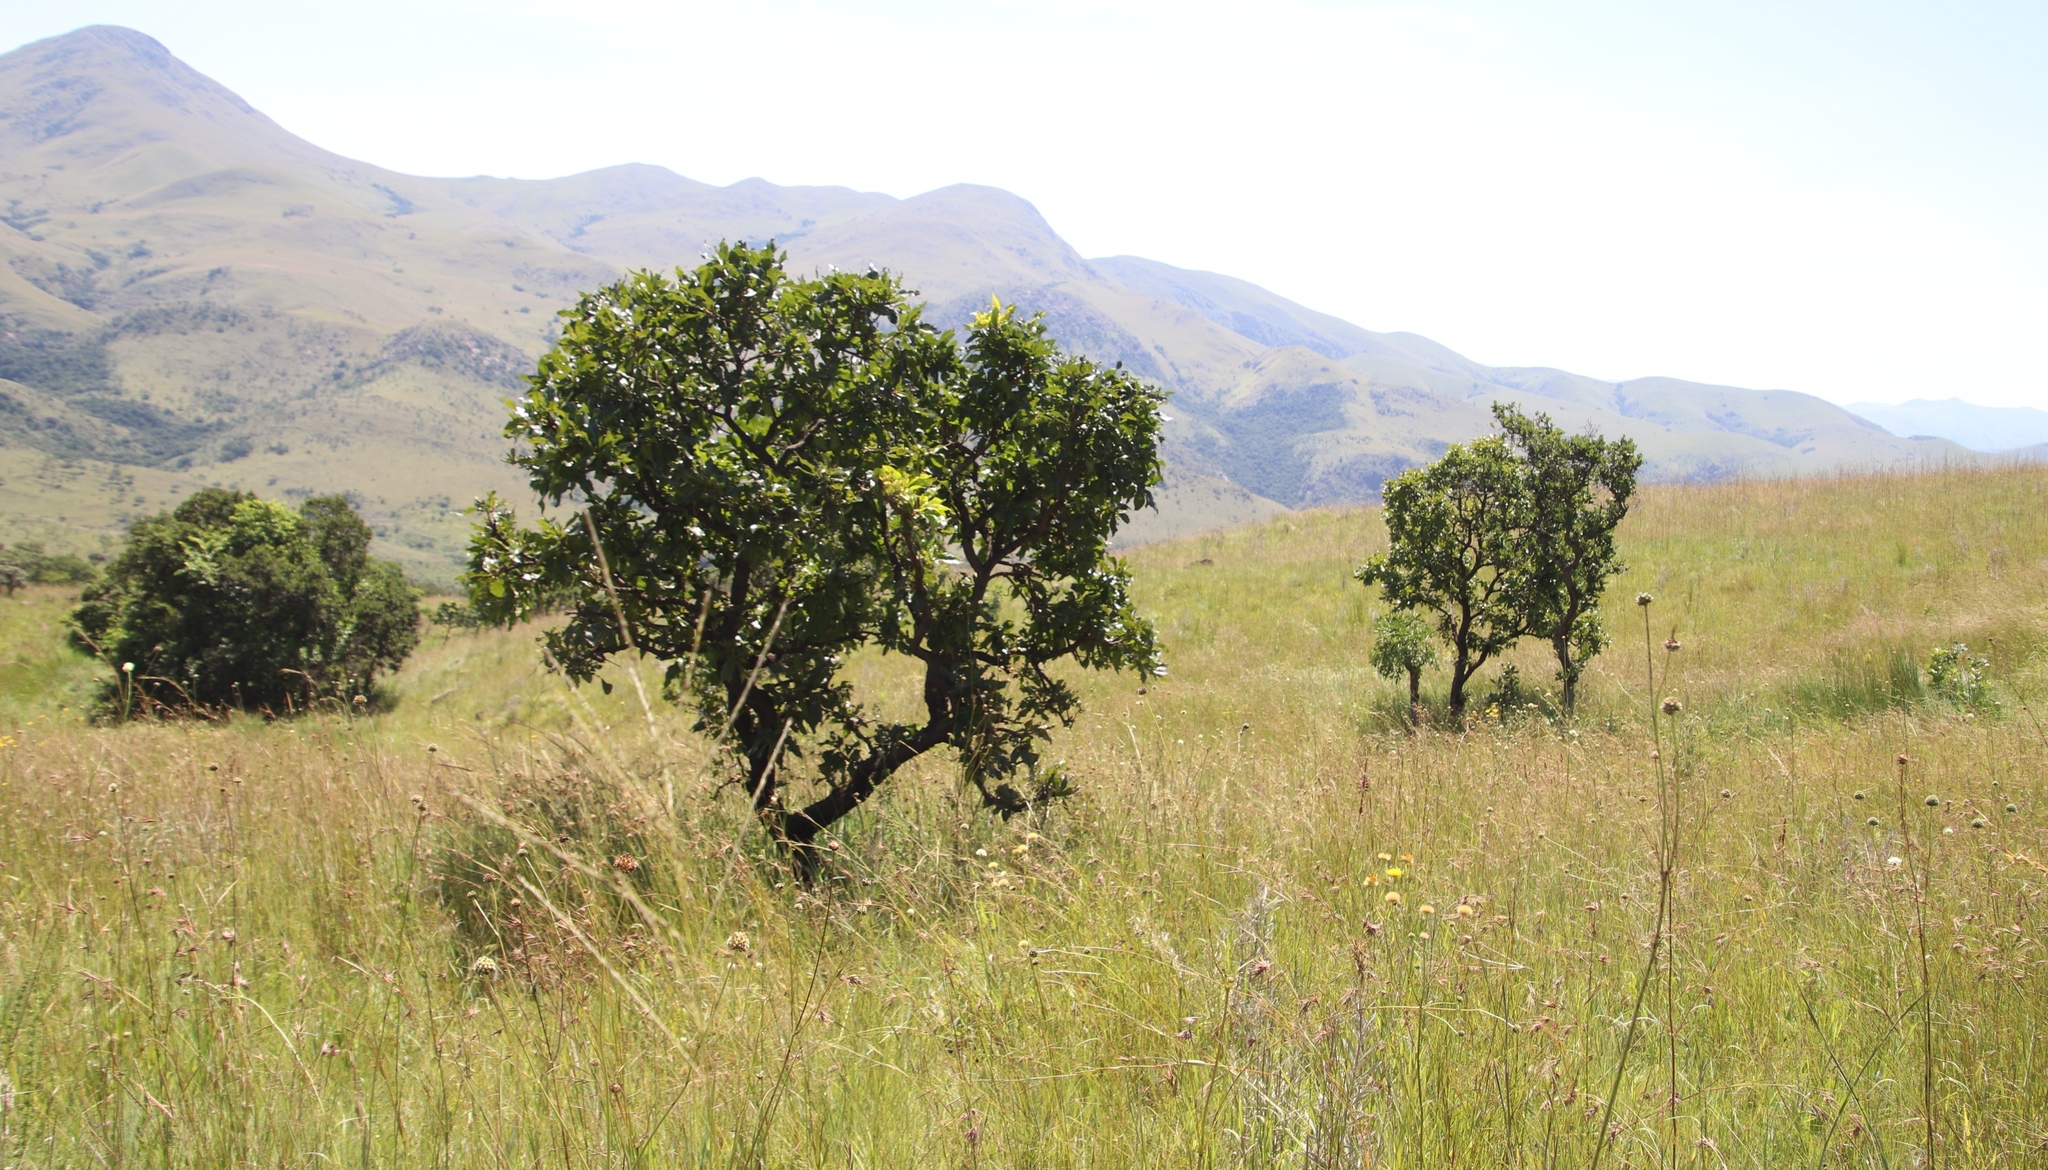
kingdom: Plantae
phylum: Tracheophyta
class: Magnoliopsida
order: Proteales
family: Proteaceae
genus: Faurea
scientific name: Faurea rochetiana
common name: Broad-leaved beech
